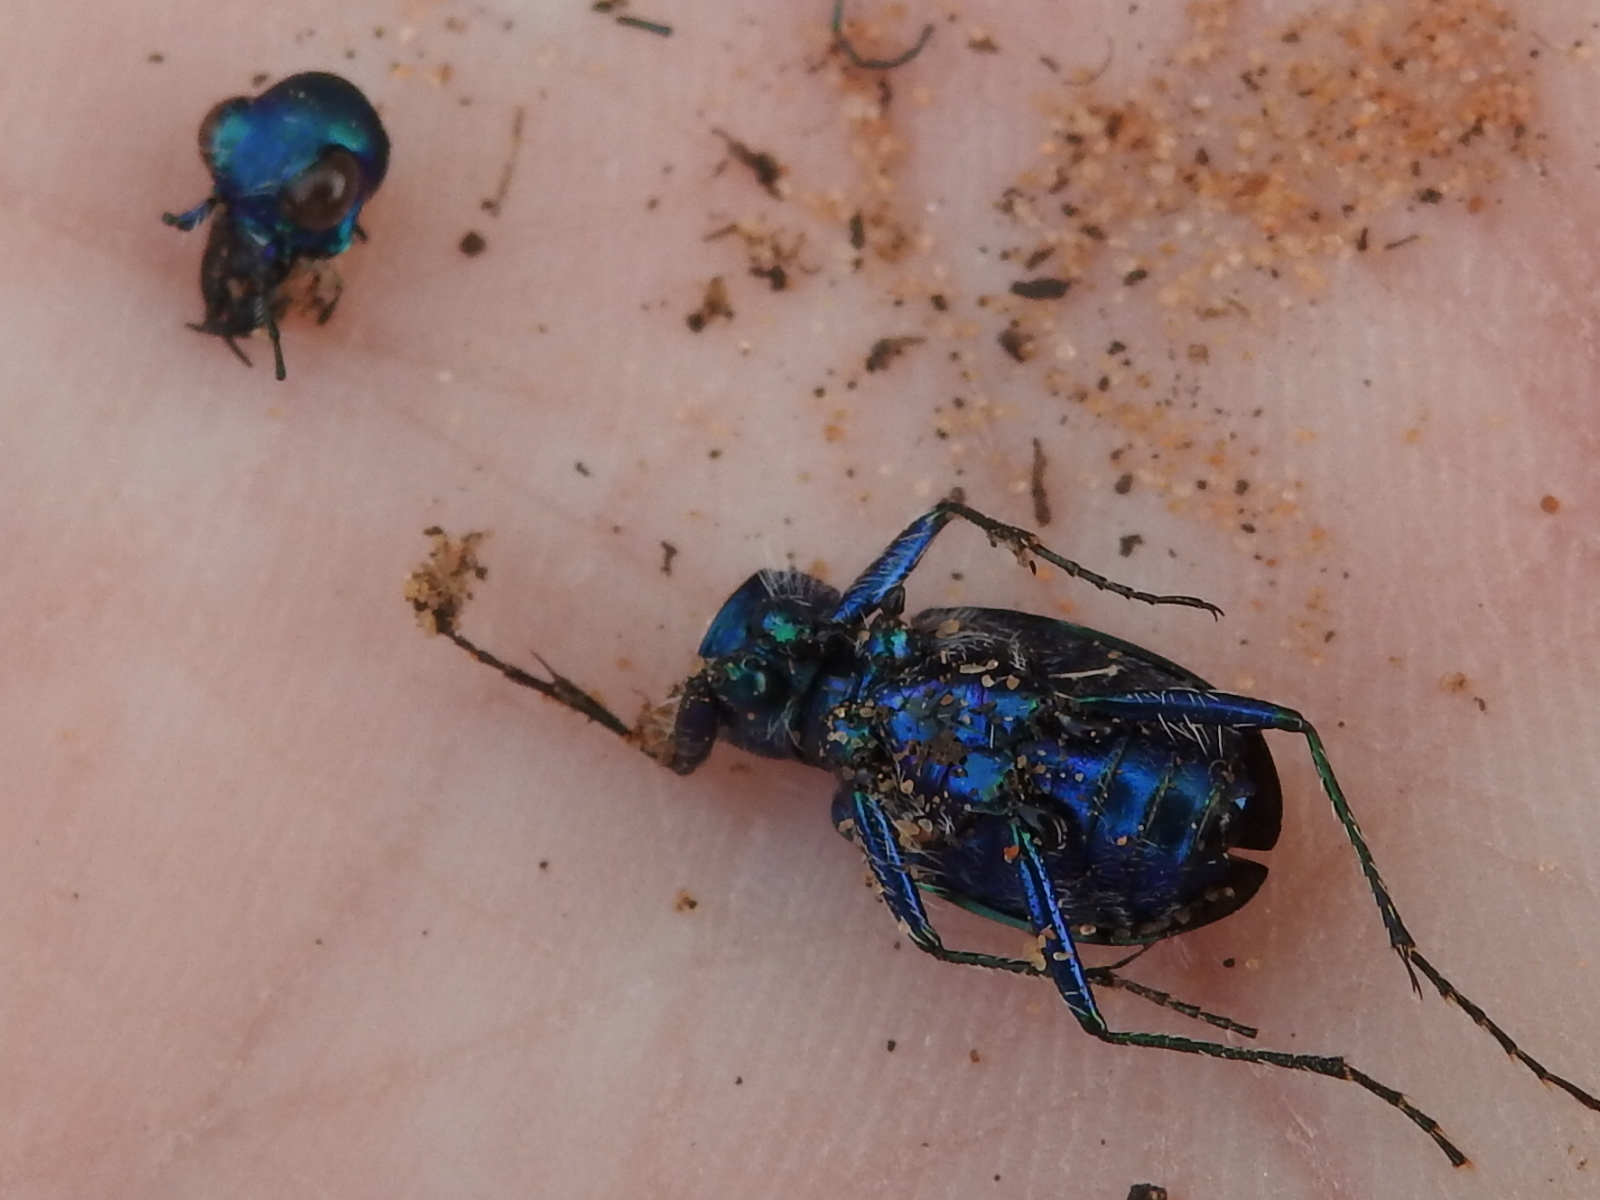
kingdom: Animalia
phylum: Arthropoda
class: Insecta
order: Coleoptera
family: Carabidae
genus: Cicindela
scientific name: Cicindela scutellaris
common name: Festive tiger beetle
